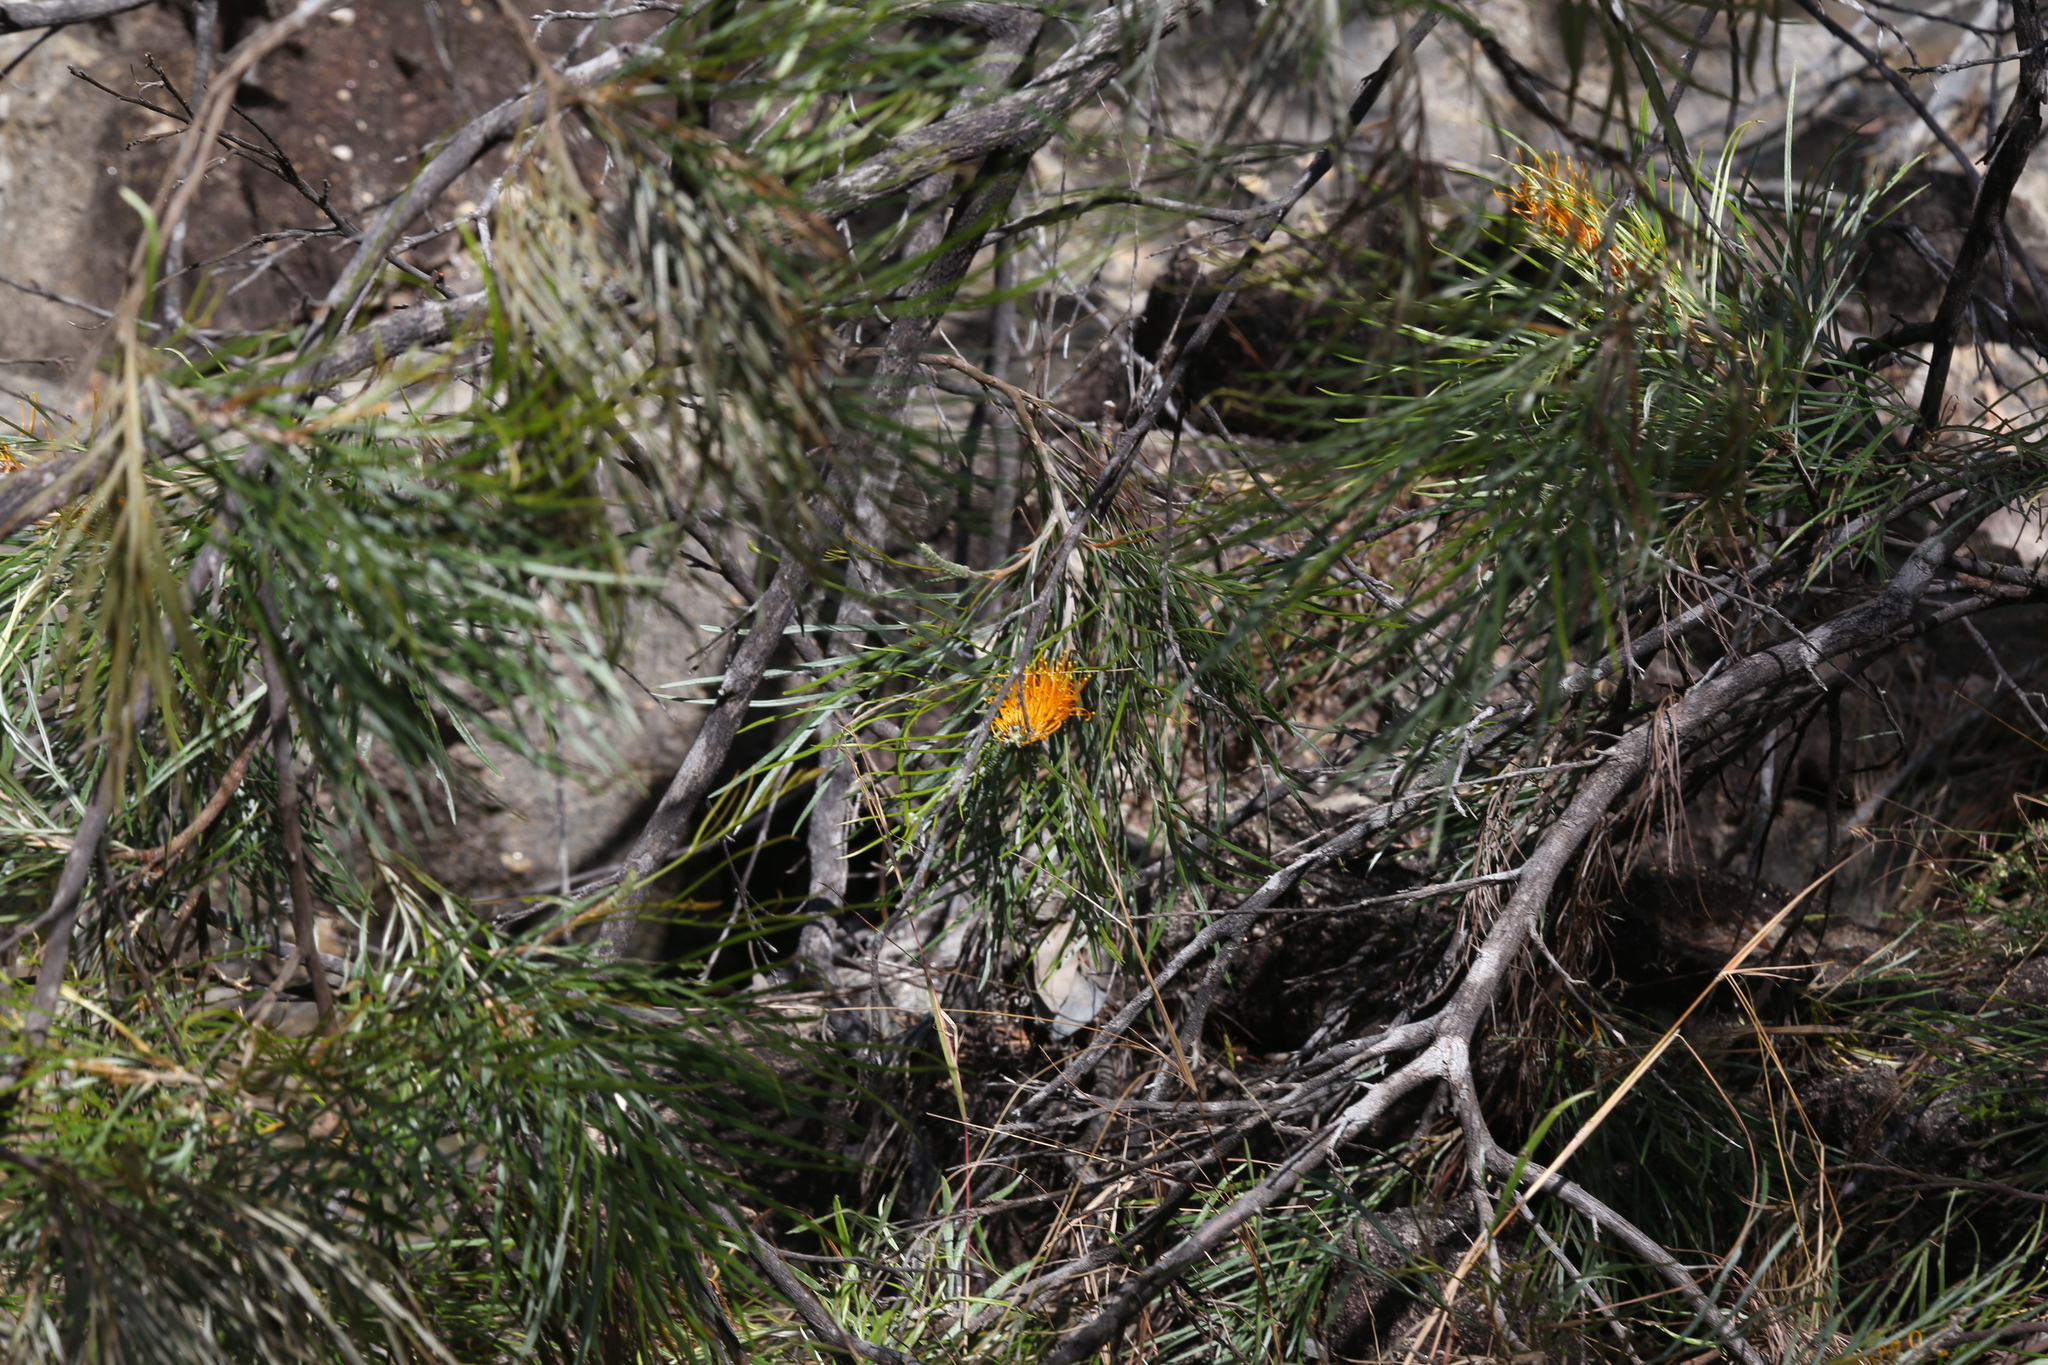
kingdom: Plantae
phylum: Tracheophyta
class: Magnoliopsida
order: Proteales
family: Proteaceae
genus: Grevillea
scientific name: Grevillea pteridifolia
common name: Golden grevillea
